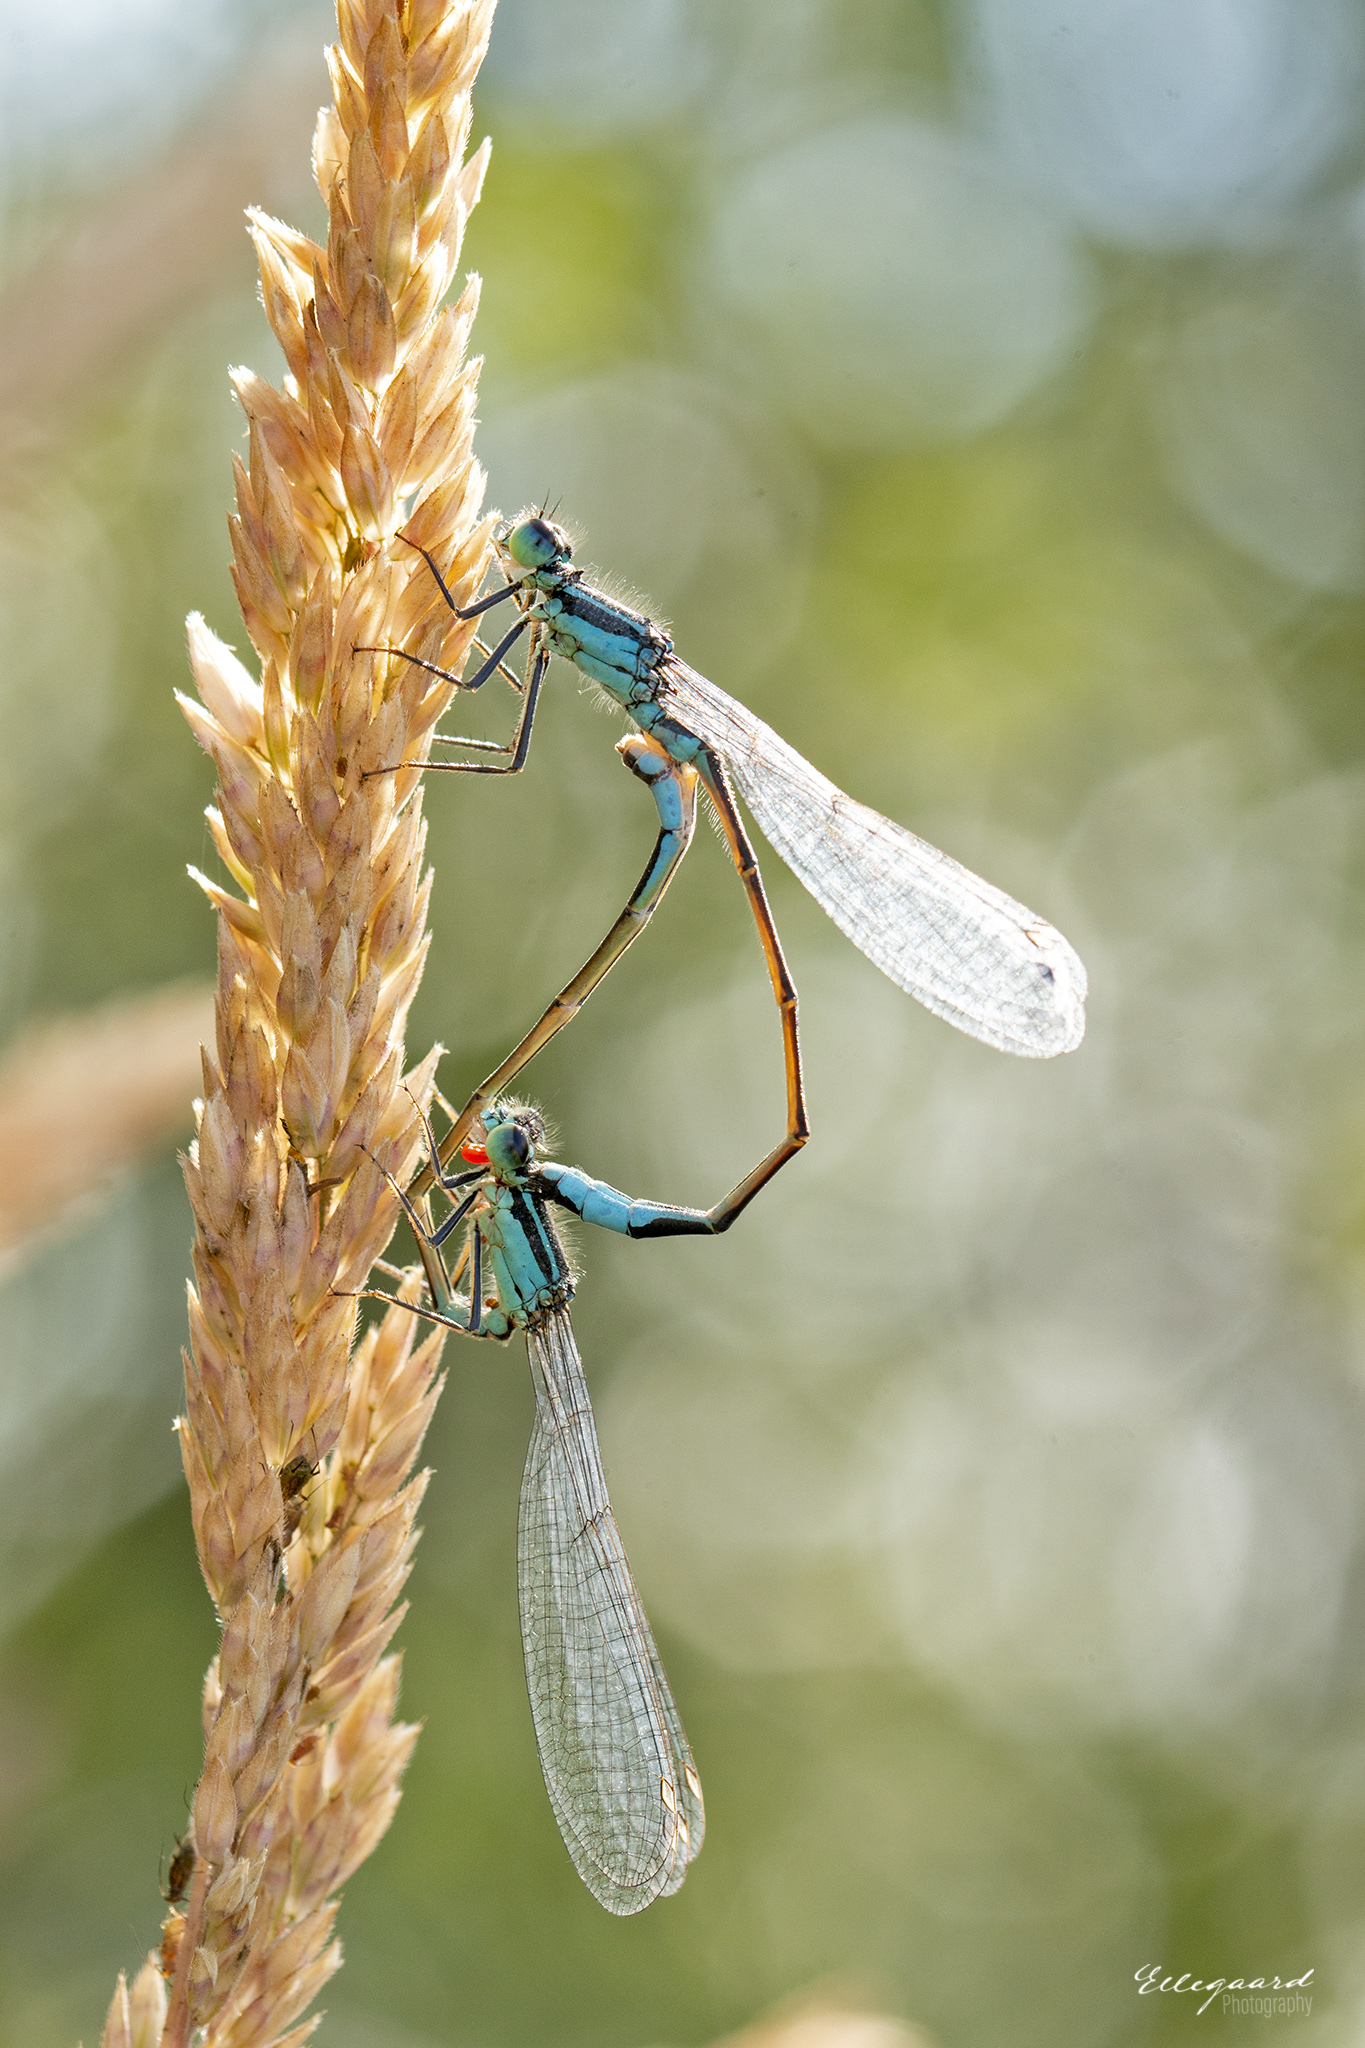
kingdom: Animalia
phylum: Arthropoda
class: Insecta
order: Odonata
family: Coenagrionidae
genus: Ischnura
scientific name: Ischnura elegans
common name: Blue-tailed damselfly
